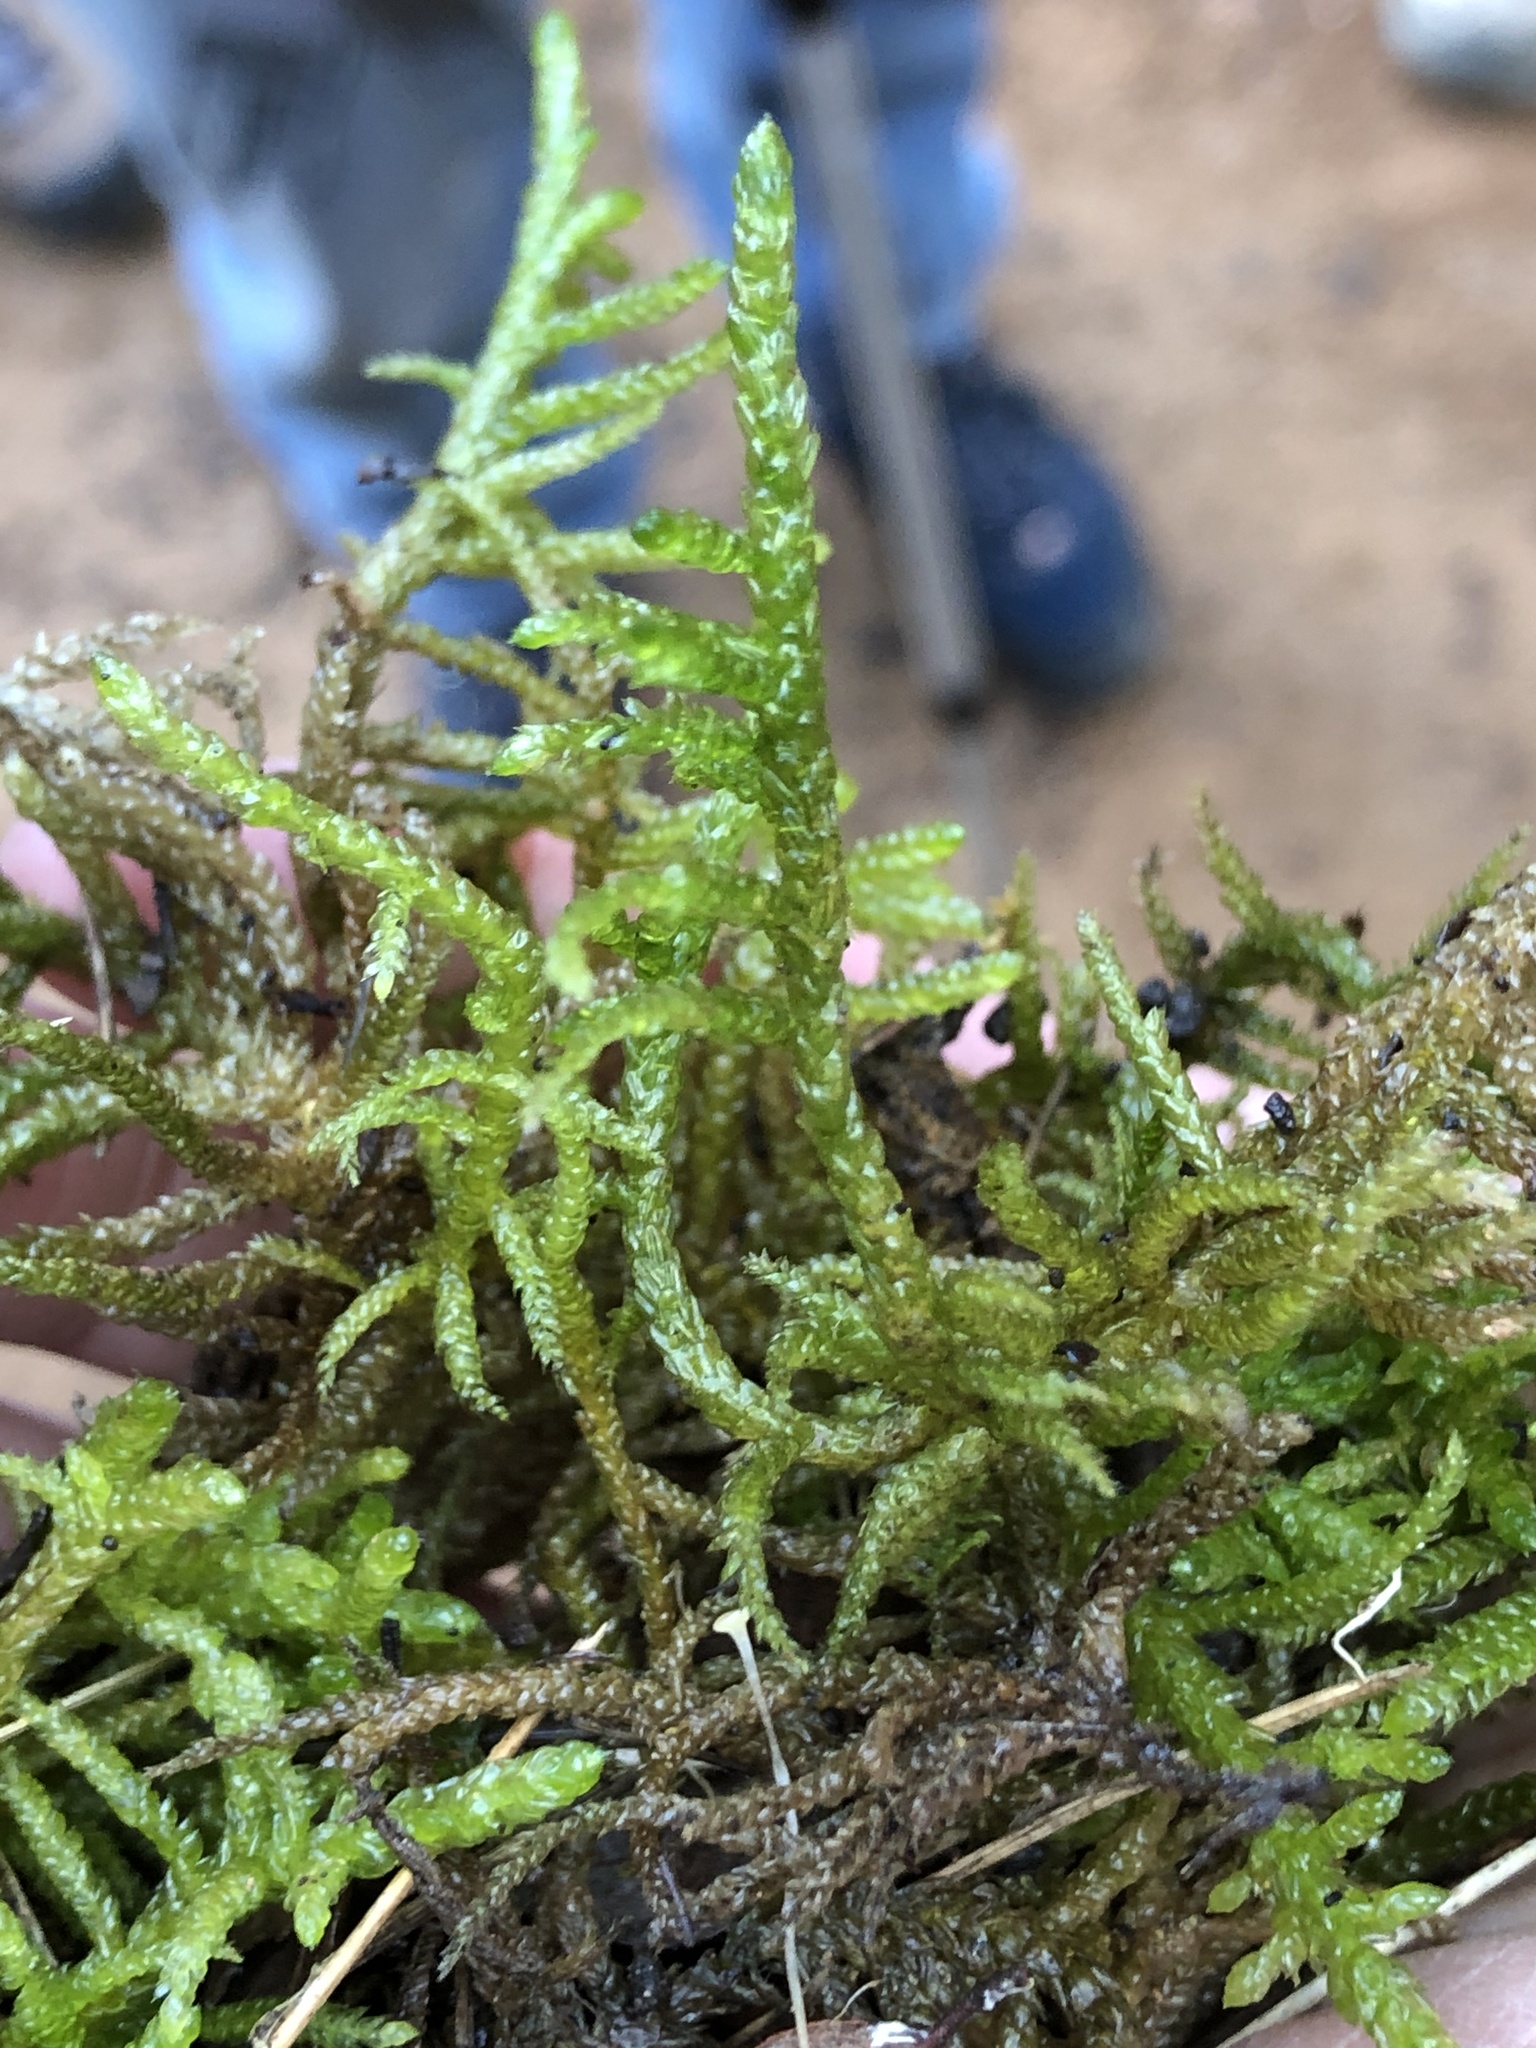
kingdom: Plantae
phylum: Bryophyta
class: Bryopsida
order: Hypnales
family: Brachytheciaceae
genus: Pseudoscleropodium
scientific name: Pseudoscleropodium purum
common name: Neat feather-moss
